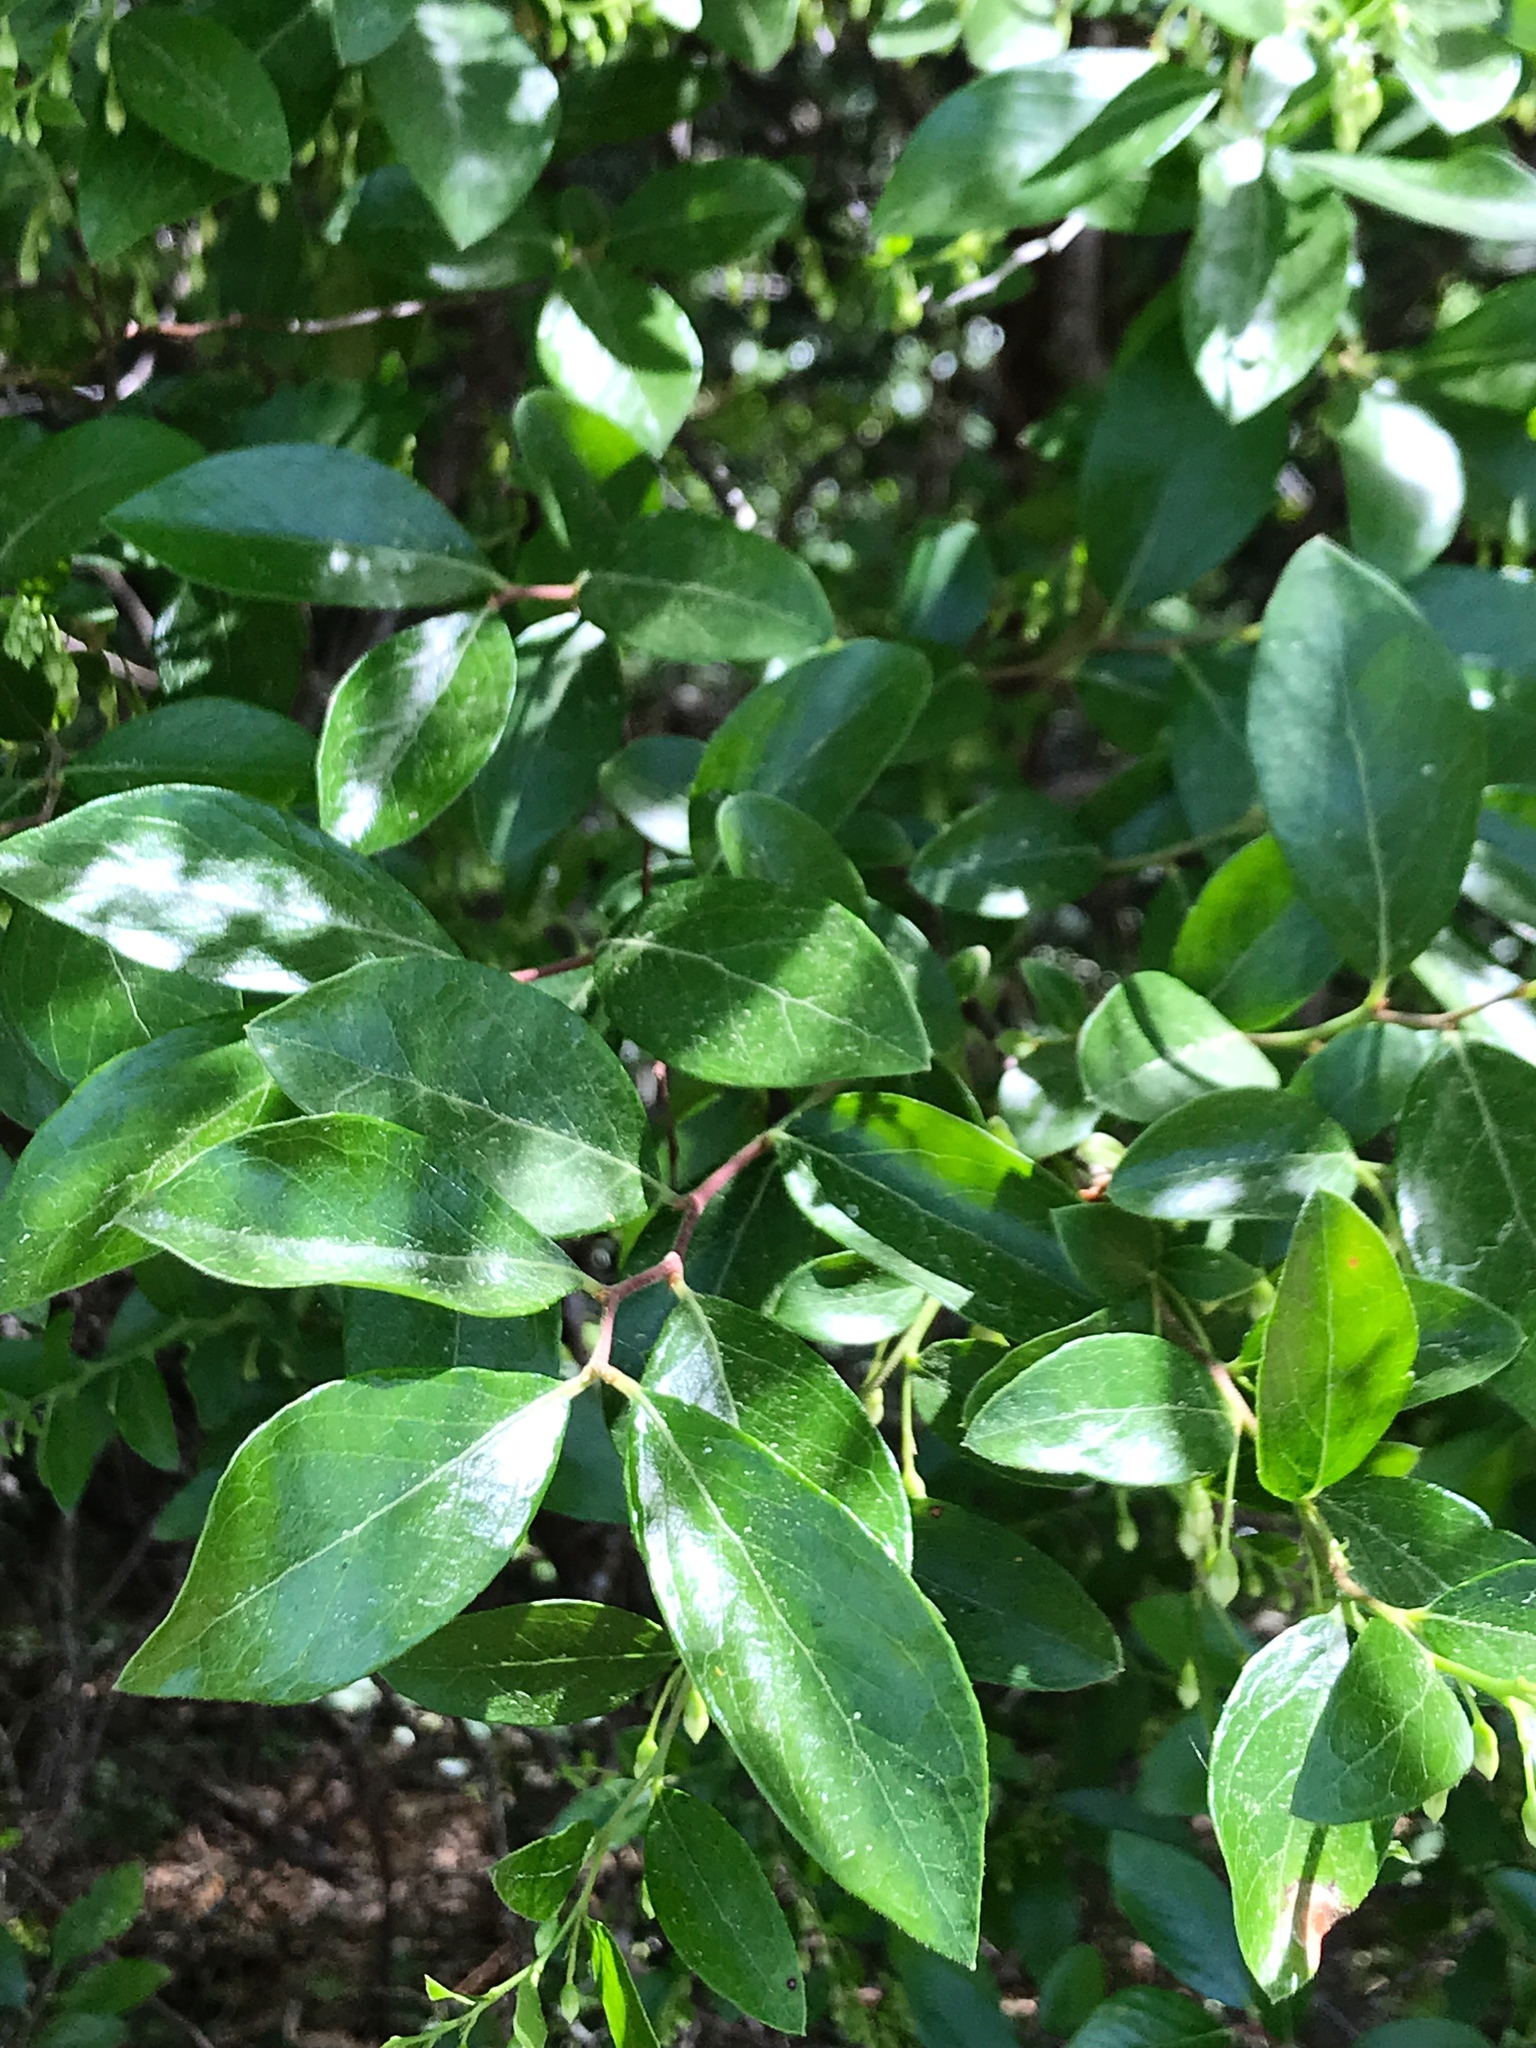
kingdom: Plantae
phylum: Tracheophyta
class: Magnoliopsida
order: Ericales
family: Ericaceae
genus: Vaccinium
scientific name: Vaccinium arboreum
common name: Farkleberry
